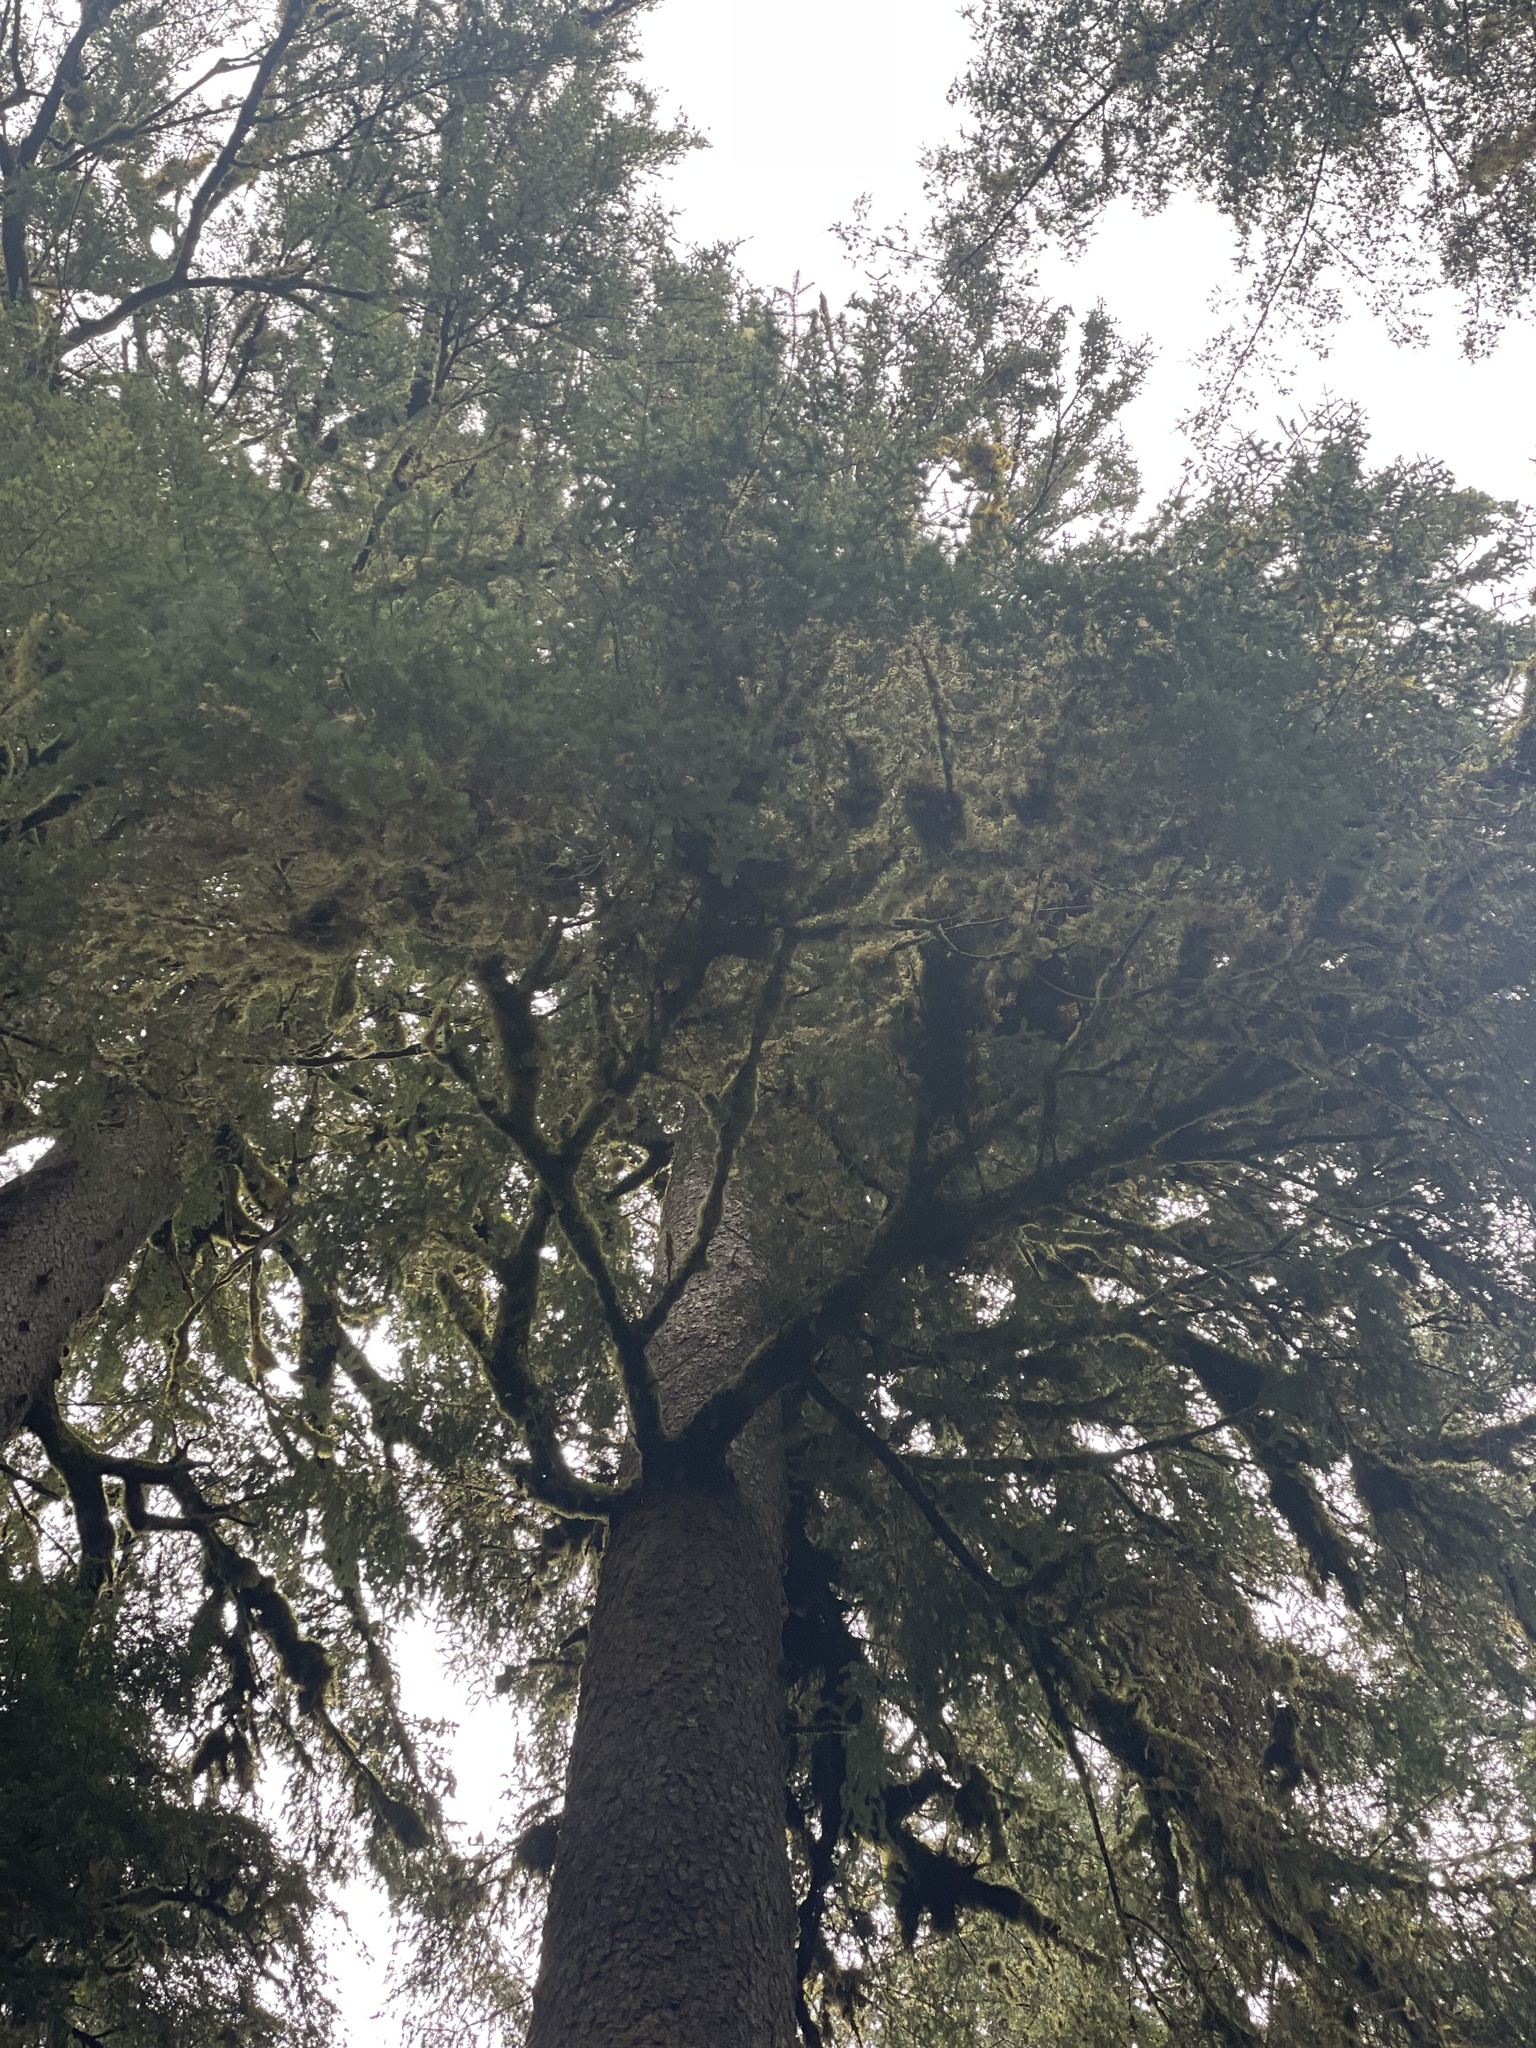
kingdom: Plantae
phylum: Tracheophyta
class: Pinopsida
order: Pinales
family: Pinaceae
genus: Picea
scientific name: Picea sitchensis
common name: Sitka spruce
